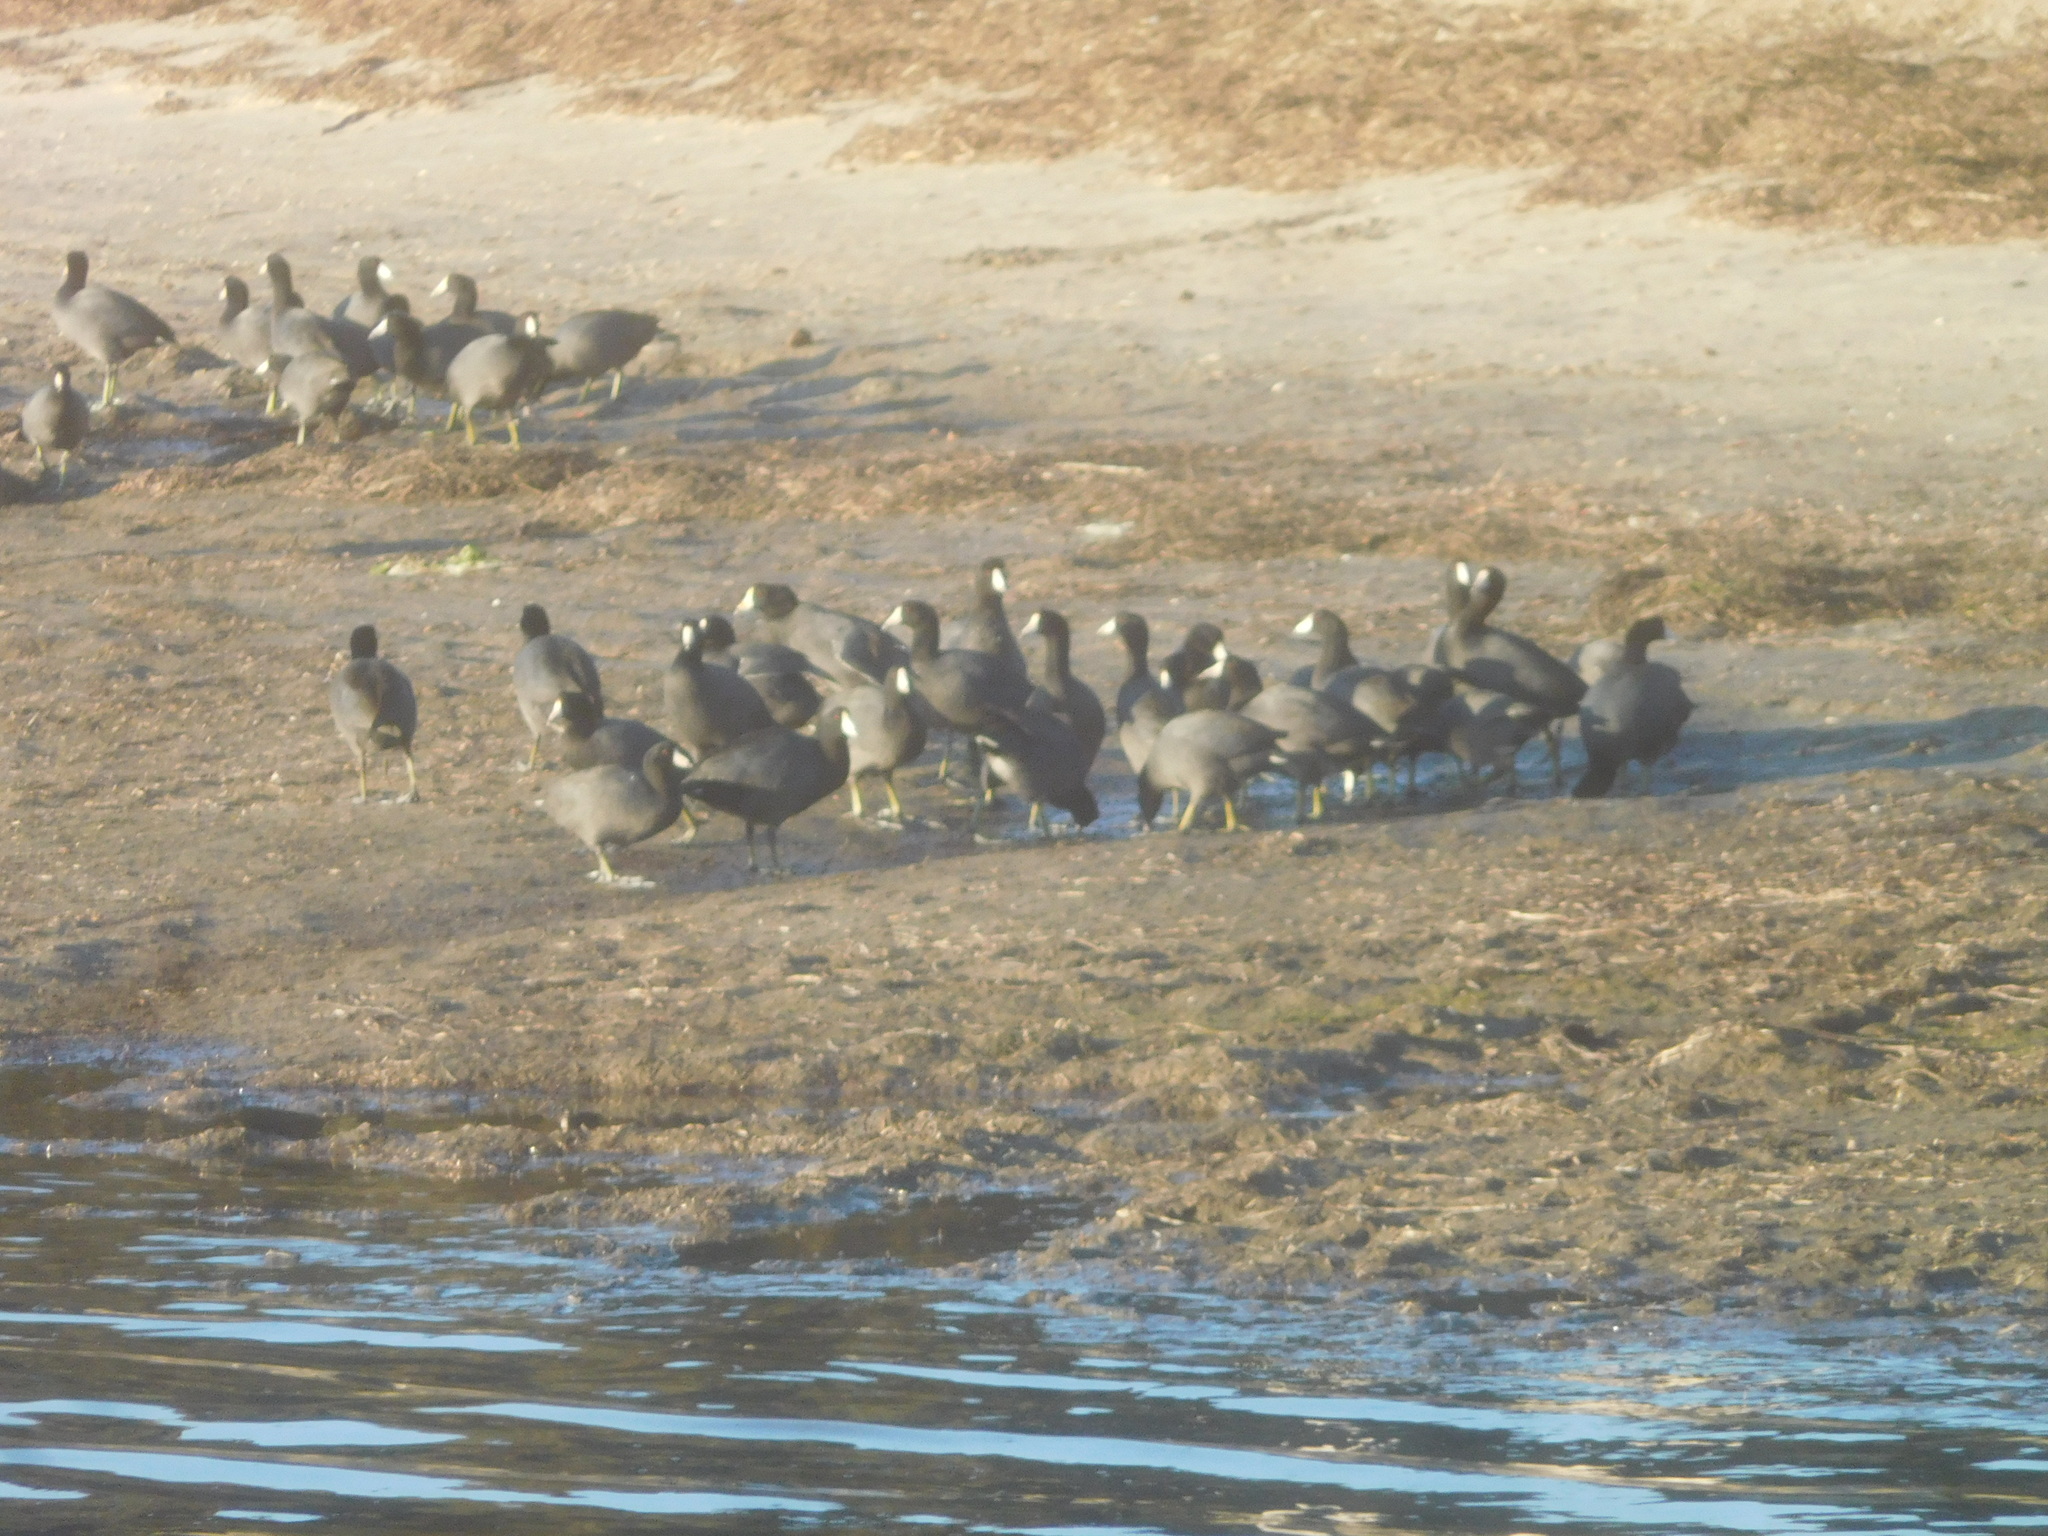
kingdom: Animalia
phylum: Chordata
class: Aves
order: Gruiformes
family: Rallidae
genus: Fulica
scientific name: Fulica americana
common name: American coot
